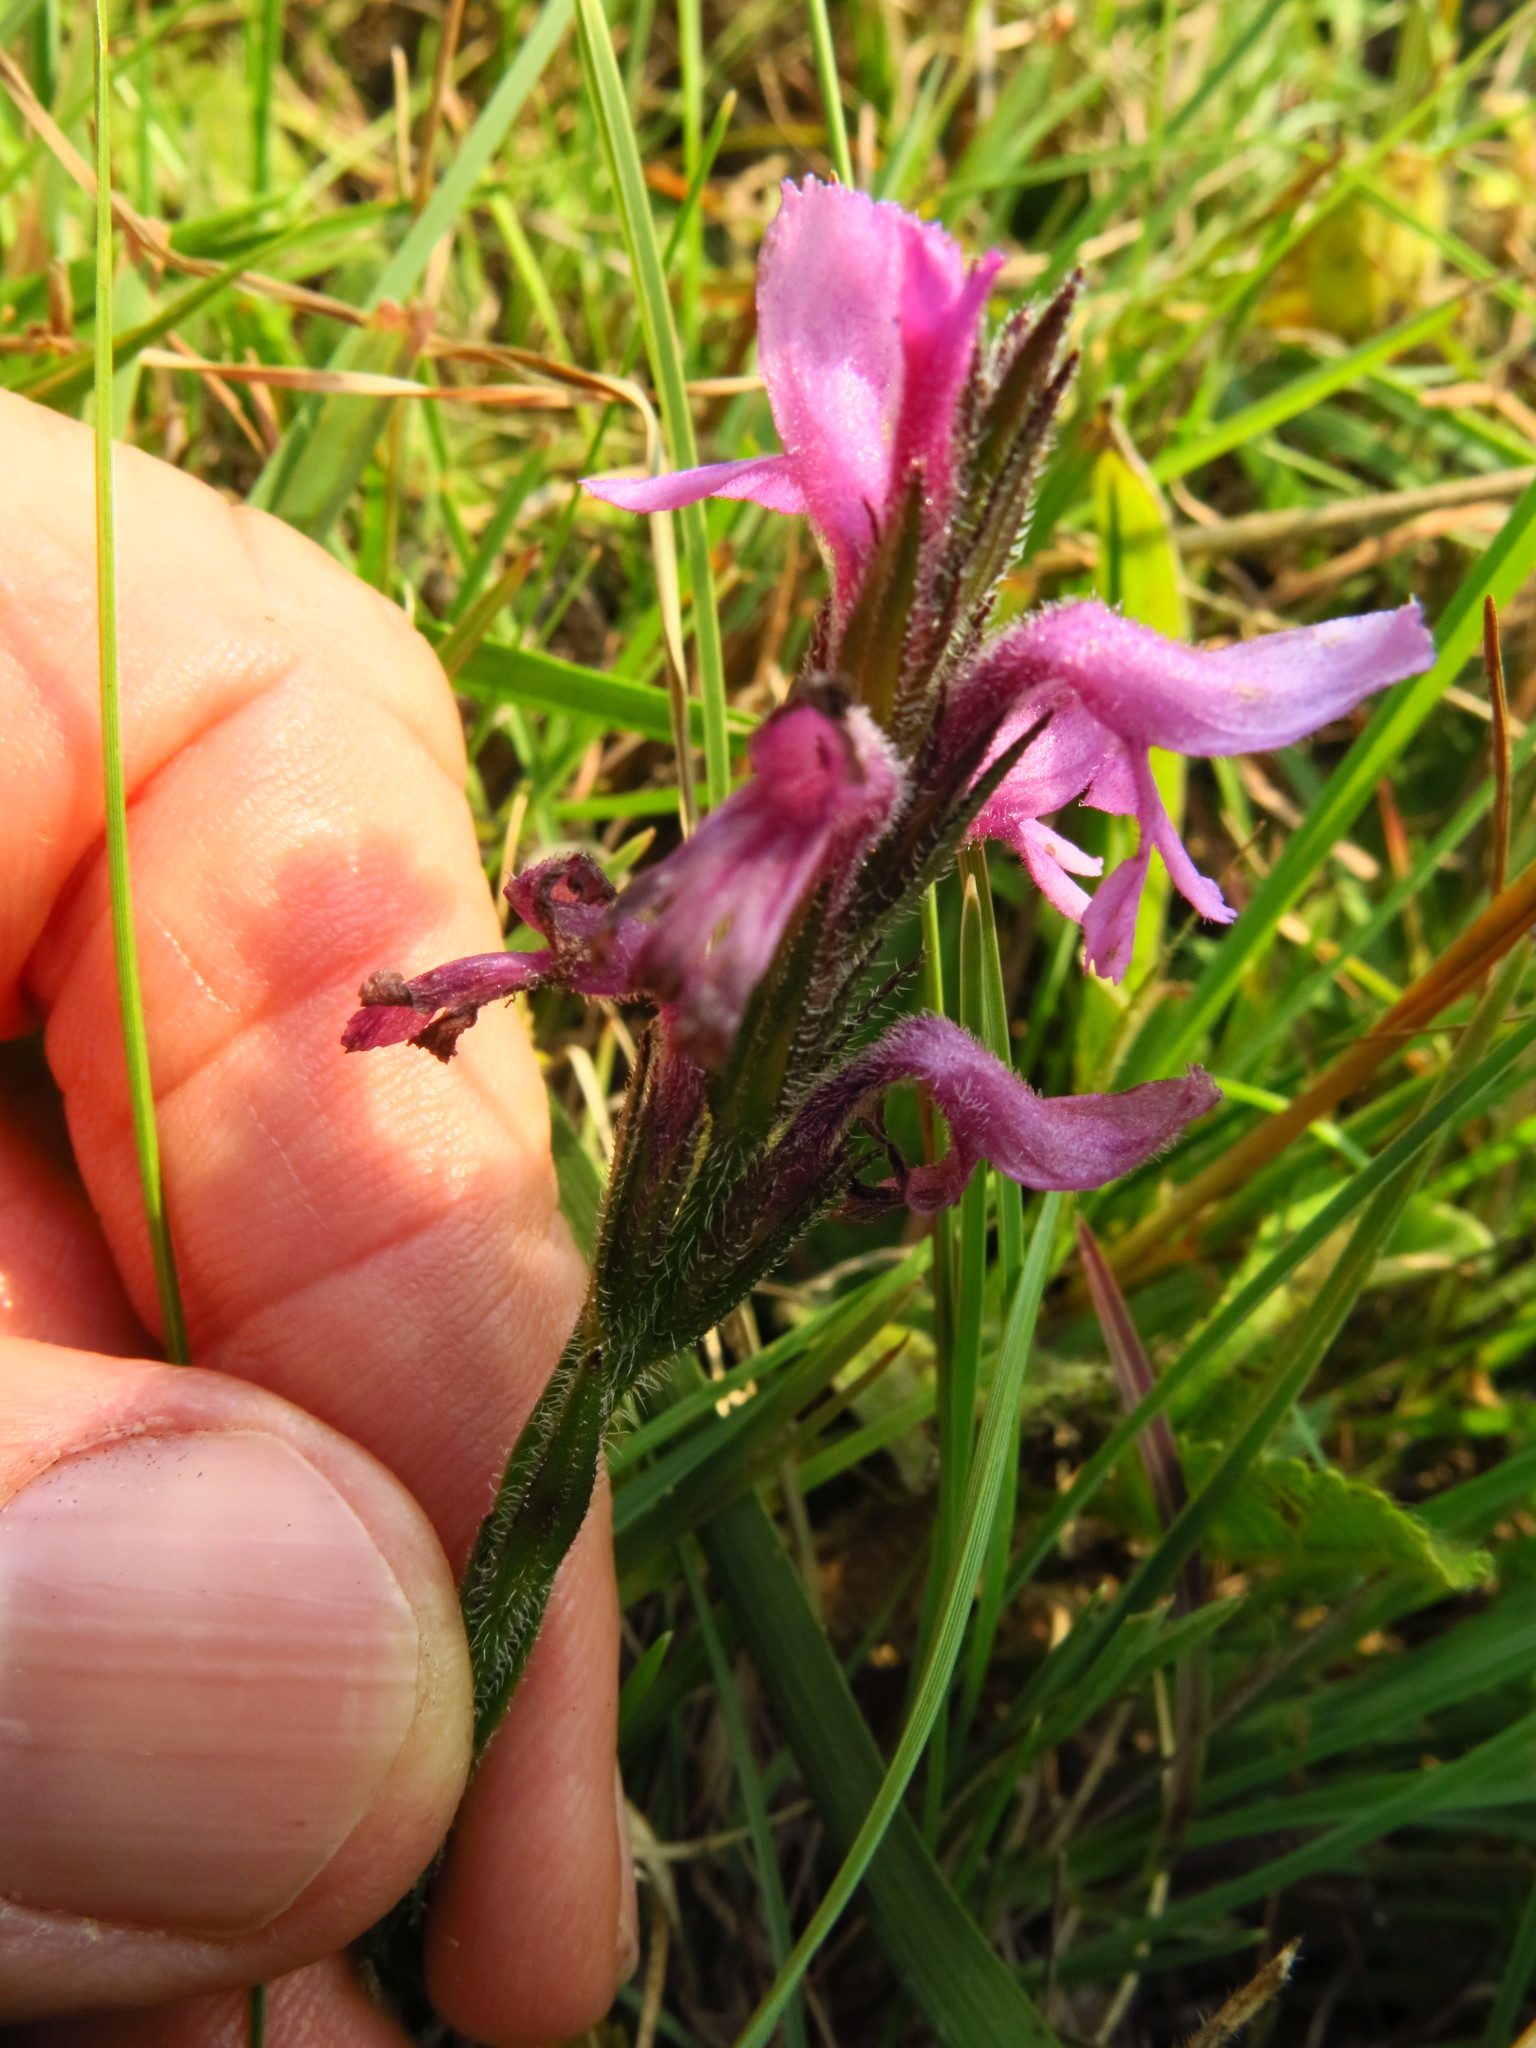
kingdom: Plantae
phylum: Tracheophyta
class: Magnoliopsida
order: Lamiales
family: Orobanchaceae
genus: Striga
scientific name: Striga bilabiata
